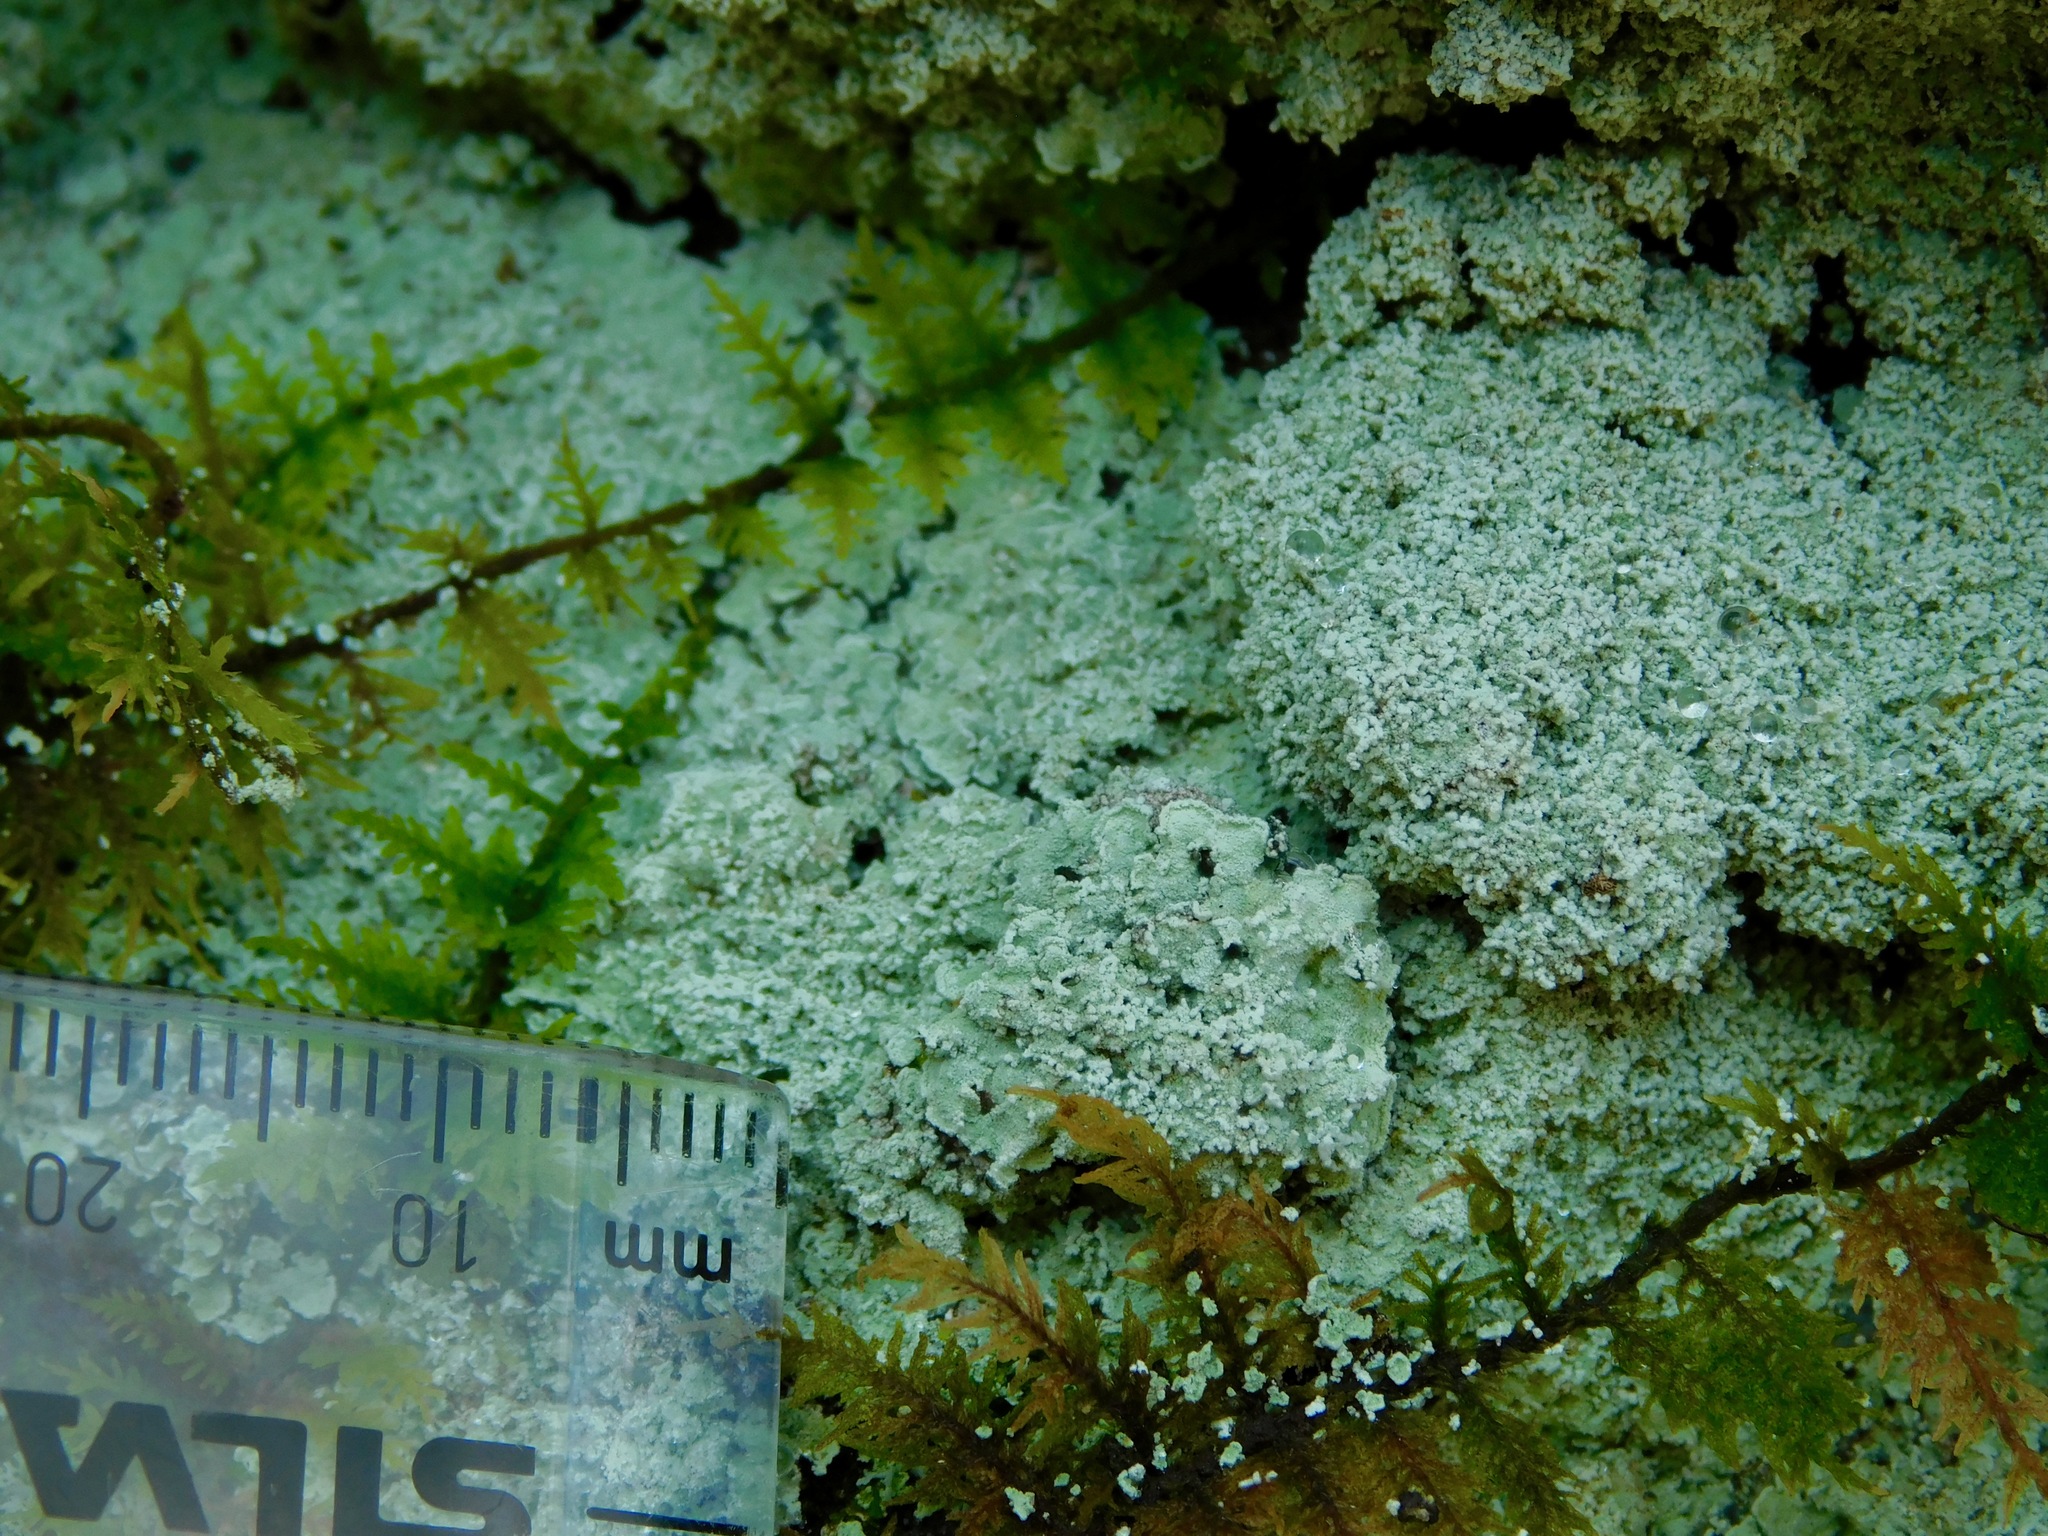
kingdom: Fungi
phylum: Ascomycota
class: Lecanoromycetes
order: Lecanorales
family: Stereocaulaceae
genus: Lepraria
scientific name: Lepraria cryophila
